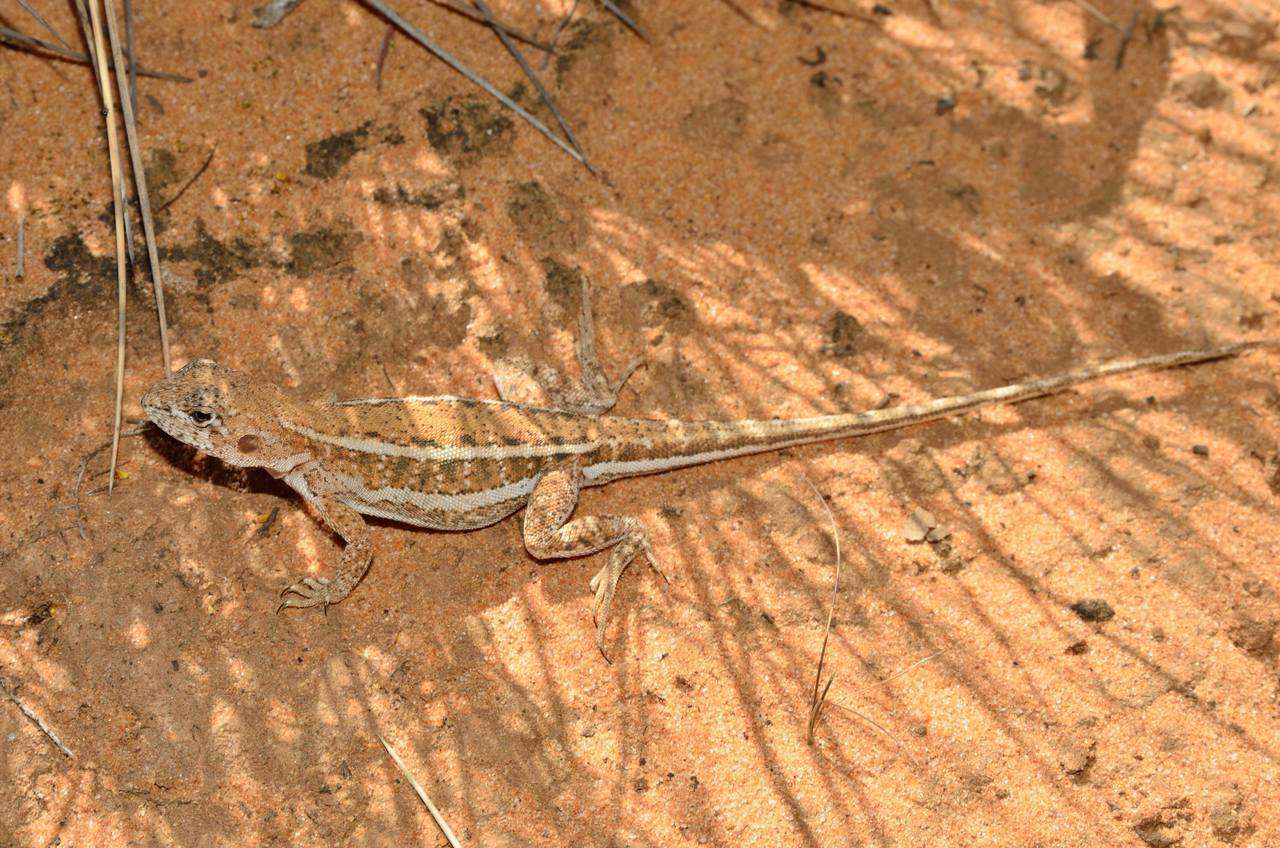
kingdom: Animalia
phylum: Chordata
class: Squamata
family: Agamidae
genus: Ctenophorus
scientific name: Ctenophorus spinodomus
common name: Eastern mallee dragon
